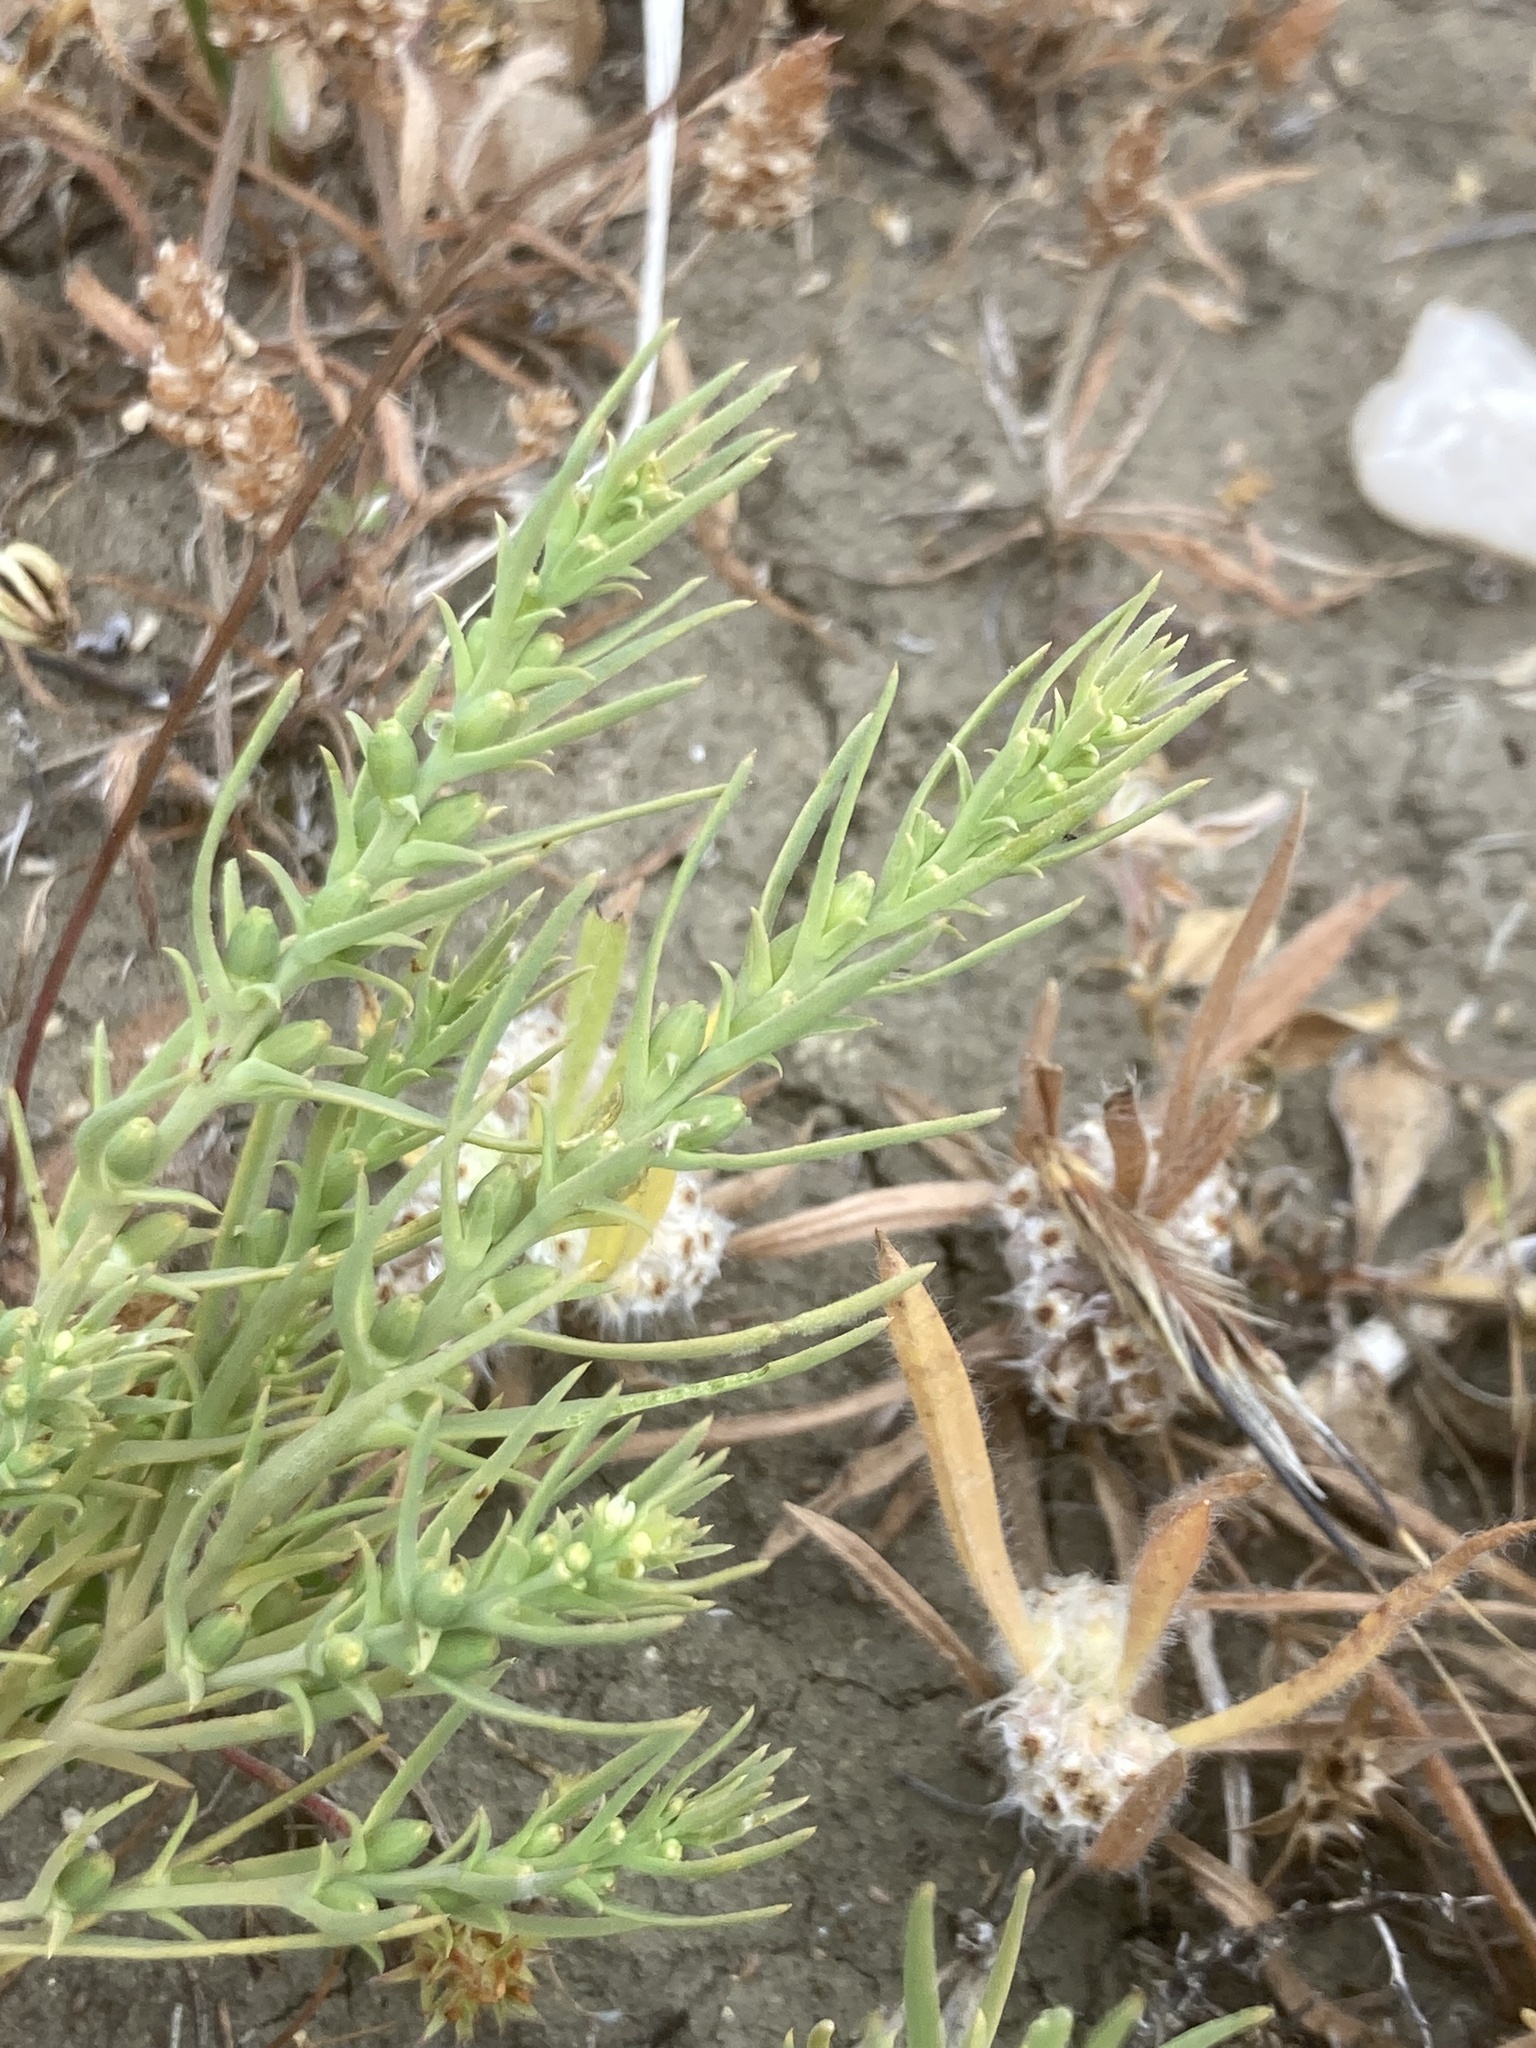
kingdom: Plantae
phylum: Tracheophyta
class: Magnoliopsida
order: Santalales
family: Thesiaceae
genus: Thesium
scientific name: Thesium humile
